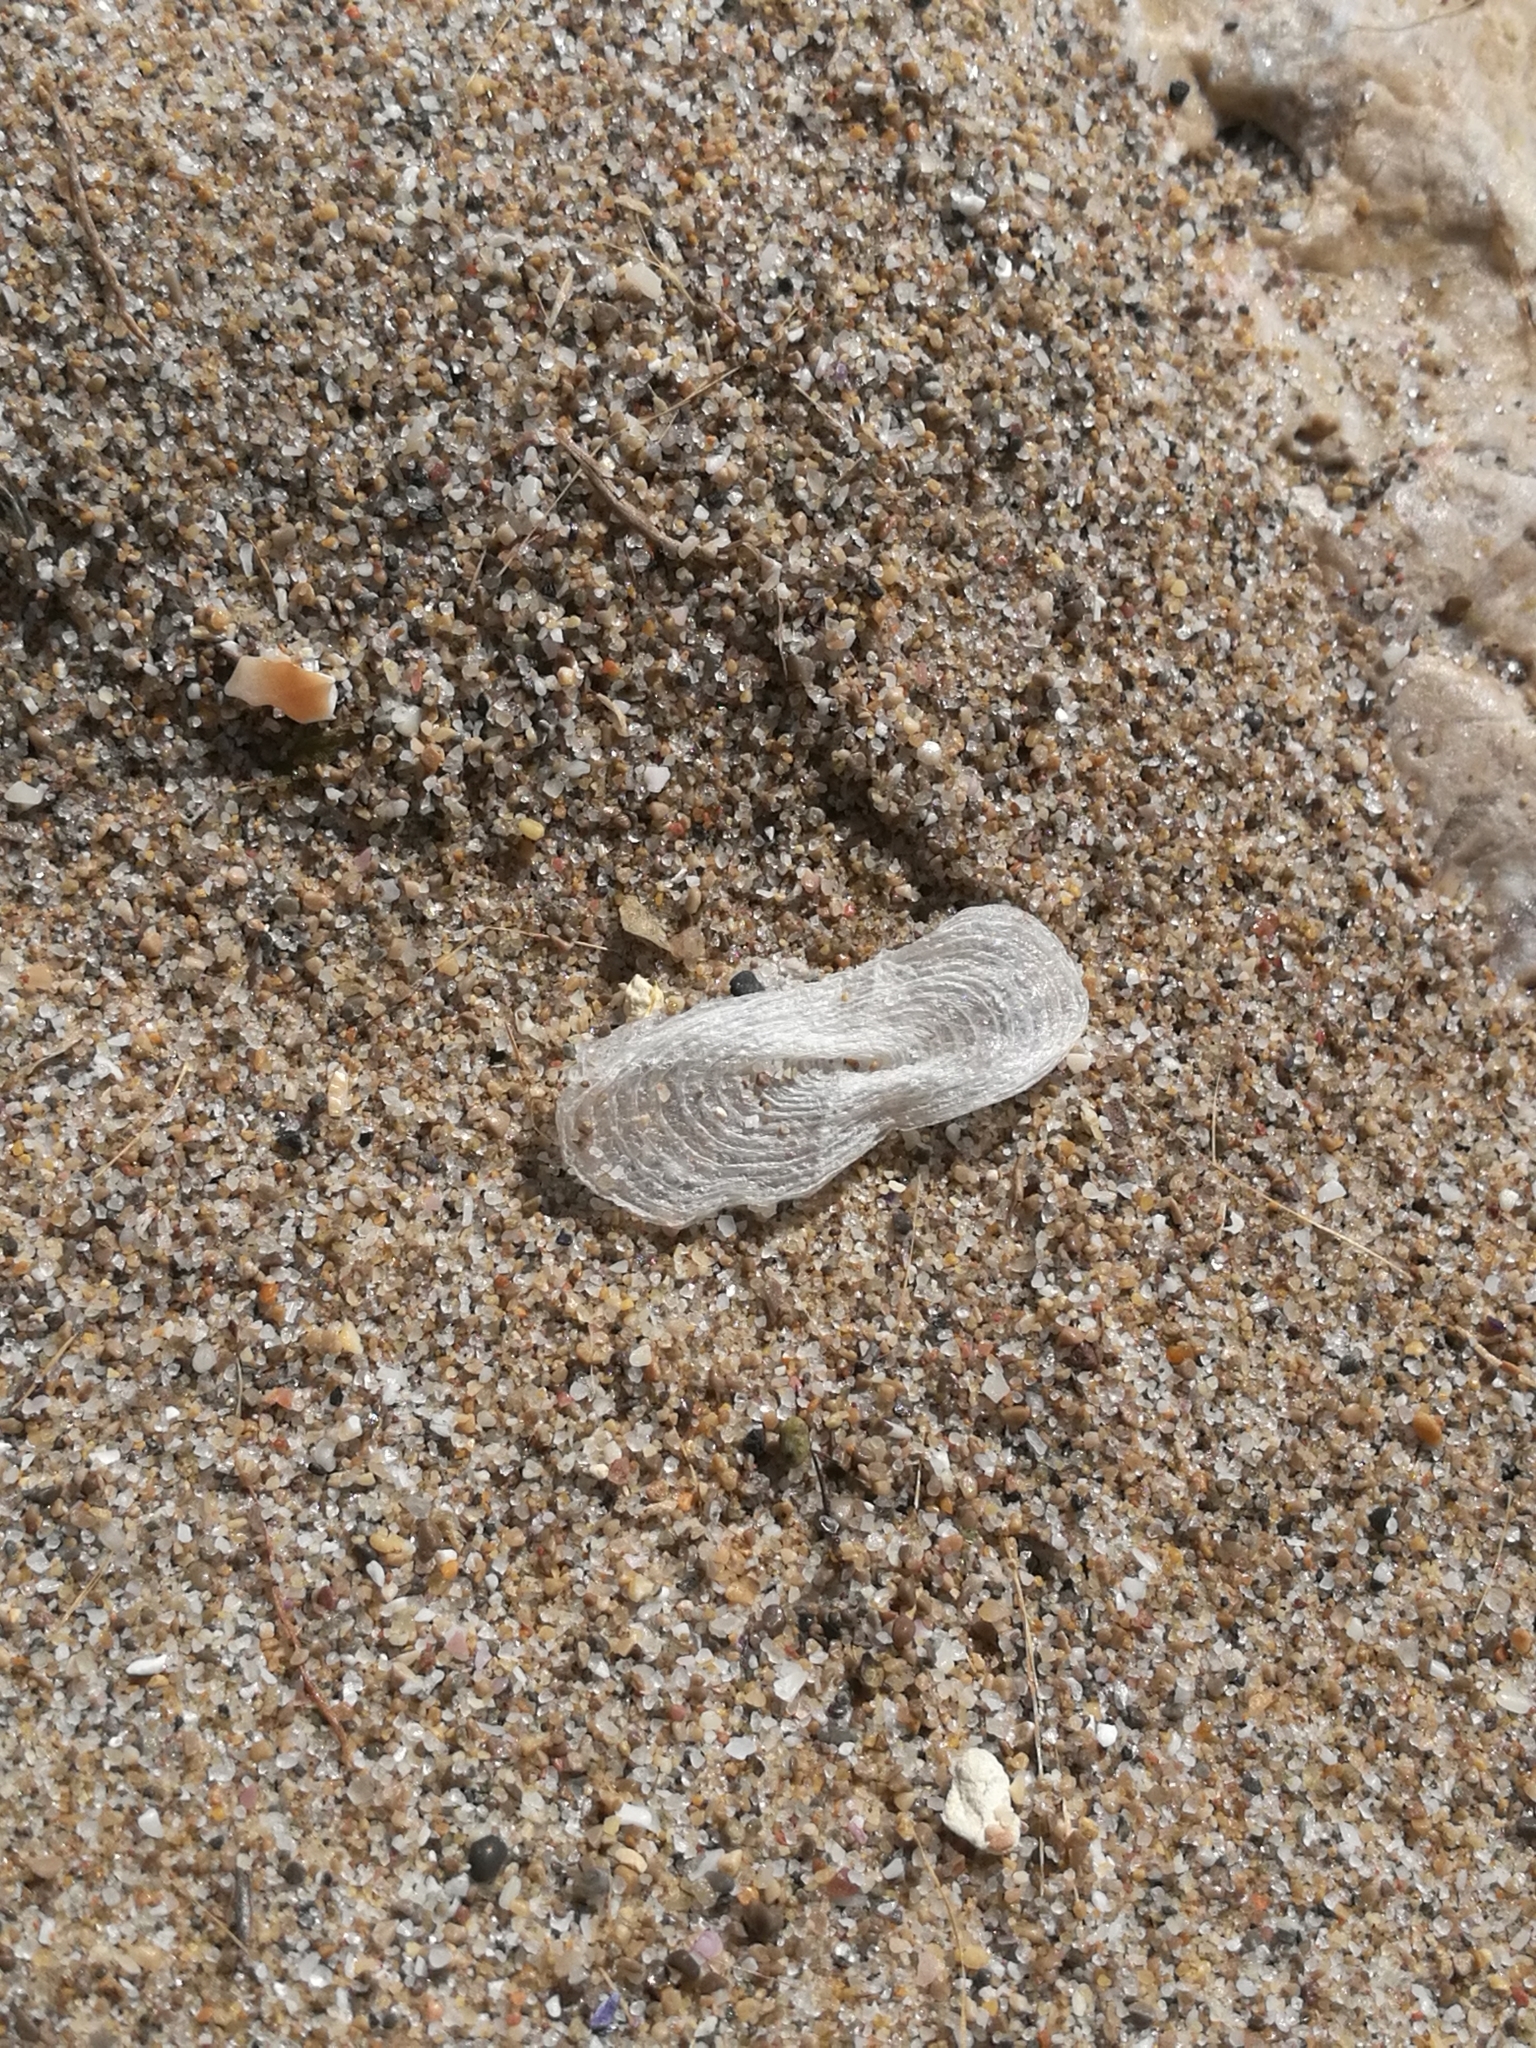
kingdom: Animalia
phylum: Cnidaria
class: Hydrozoa
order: Anthoathecata
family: Porpitidae
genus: Velella
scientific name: Velella velella
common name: By-the-wind-sailor
